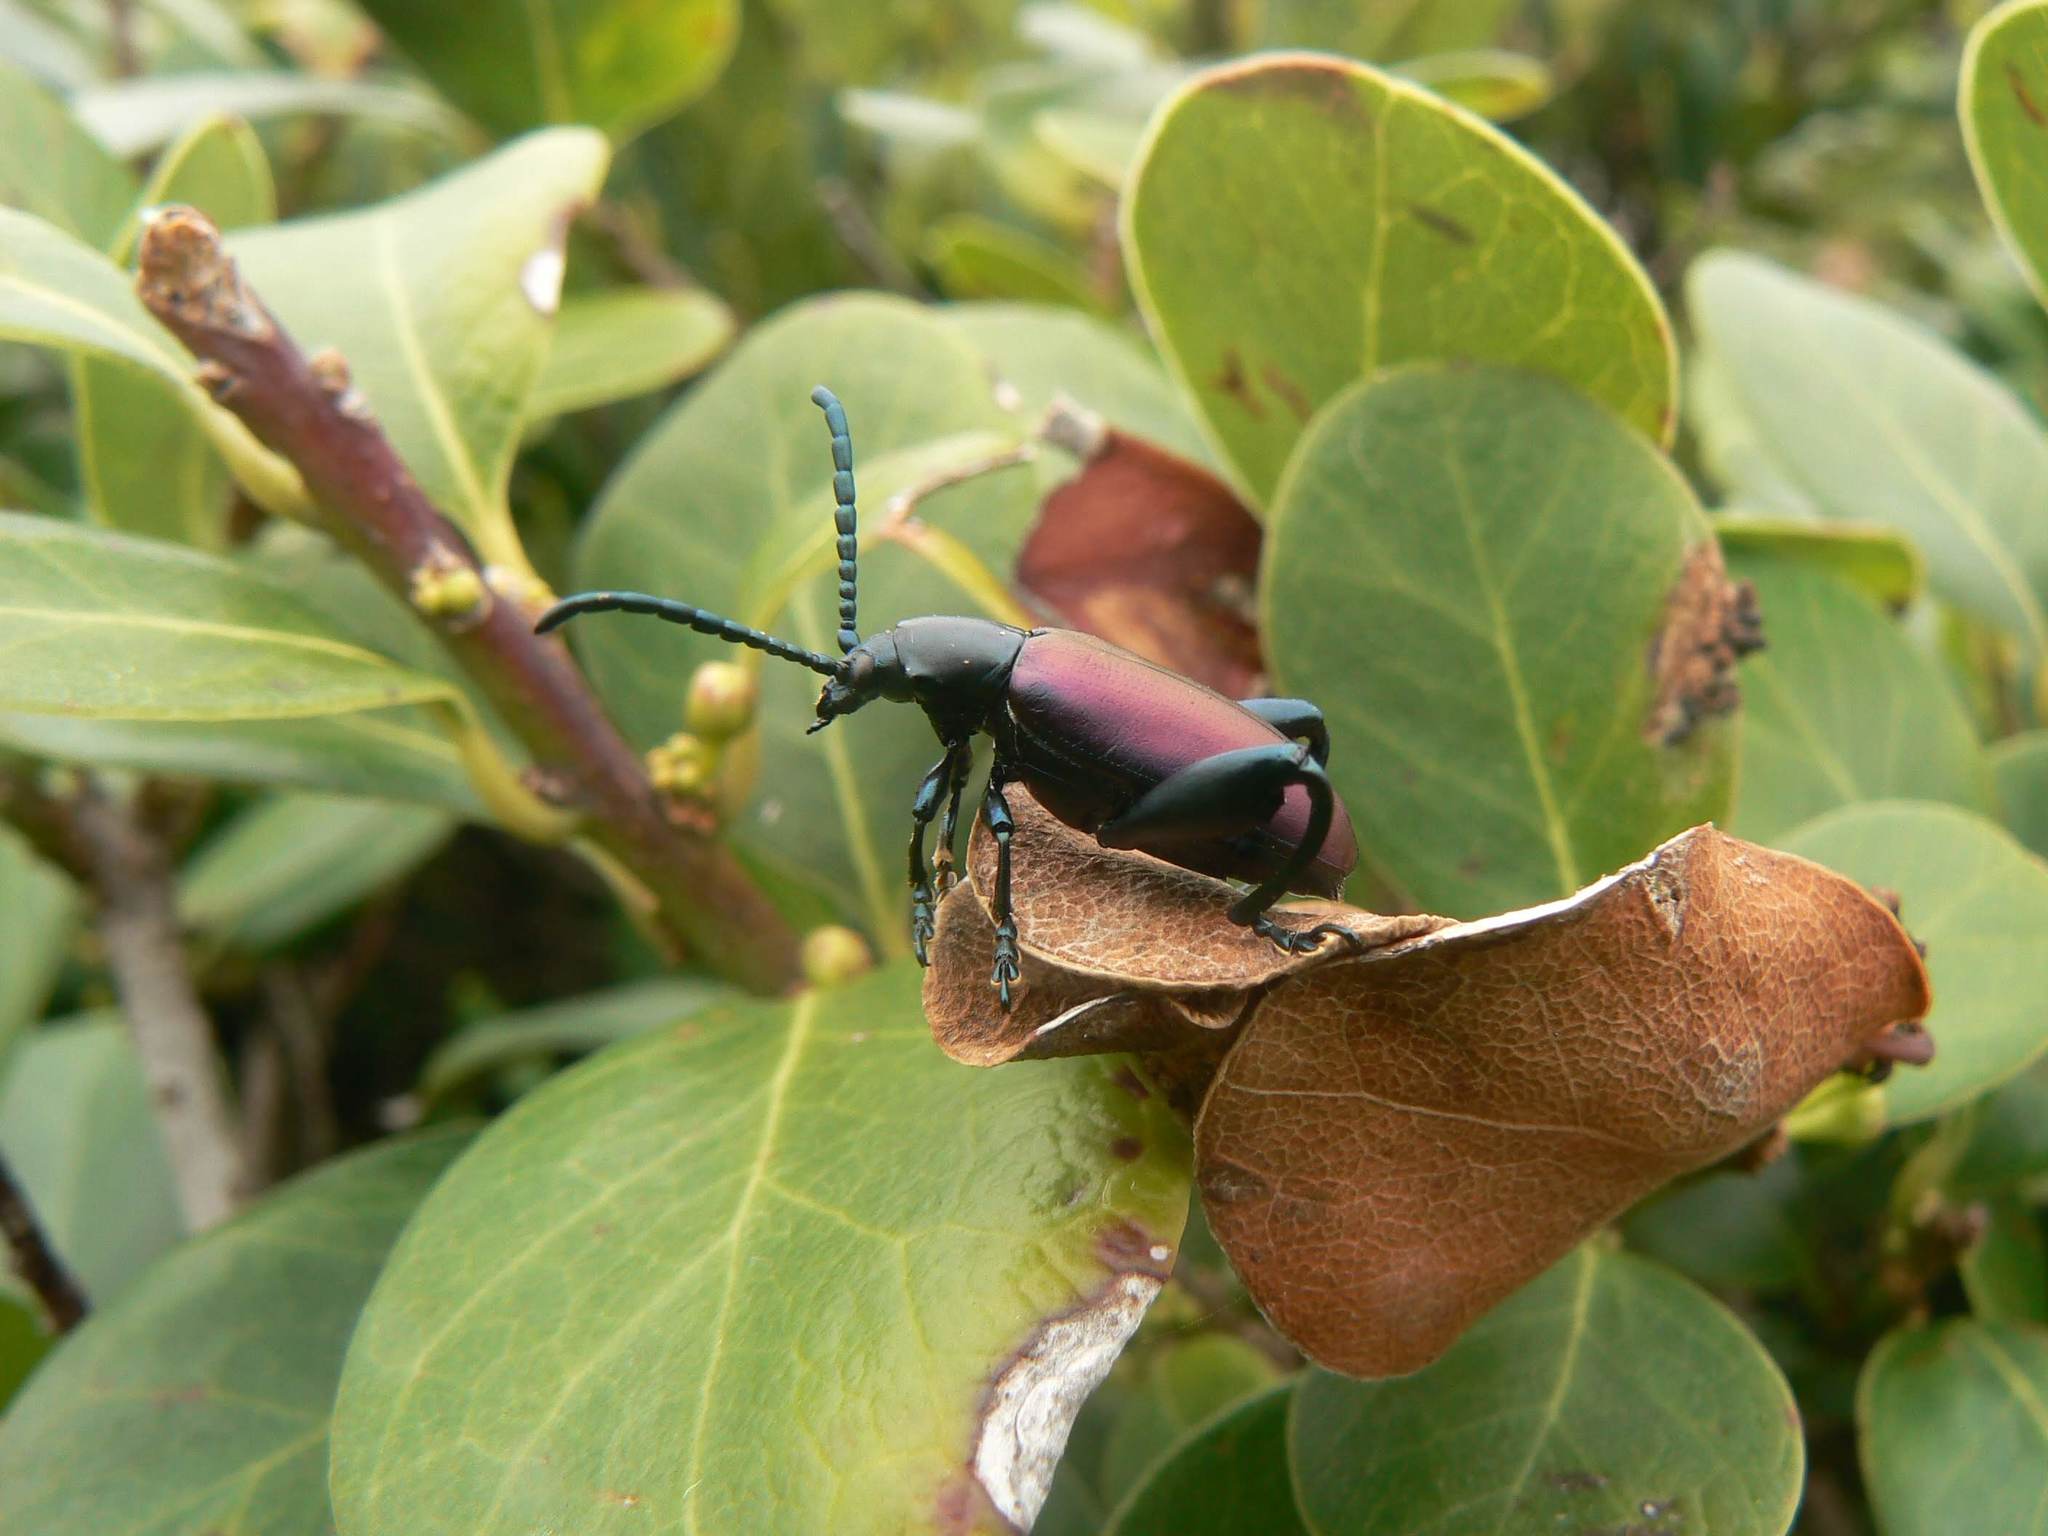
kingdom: Animalia
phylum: Arthropoda
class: Insecta
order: Coleoptera
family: Chrysomelidae
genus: Sagra
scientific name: Sagra
